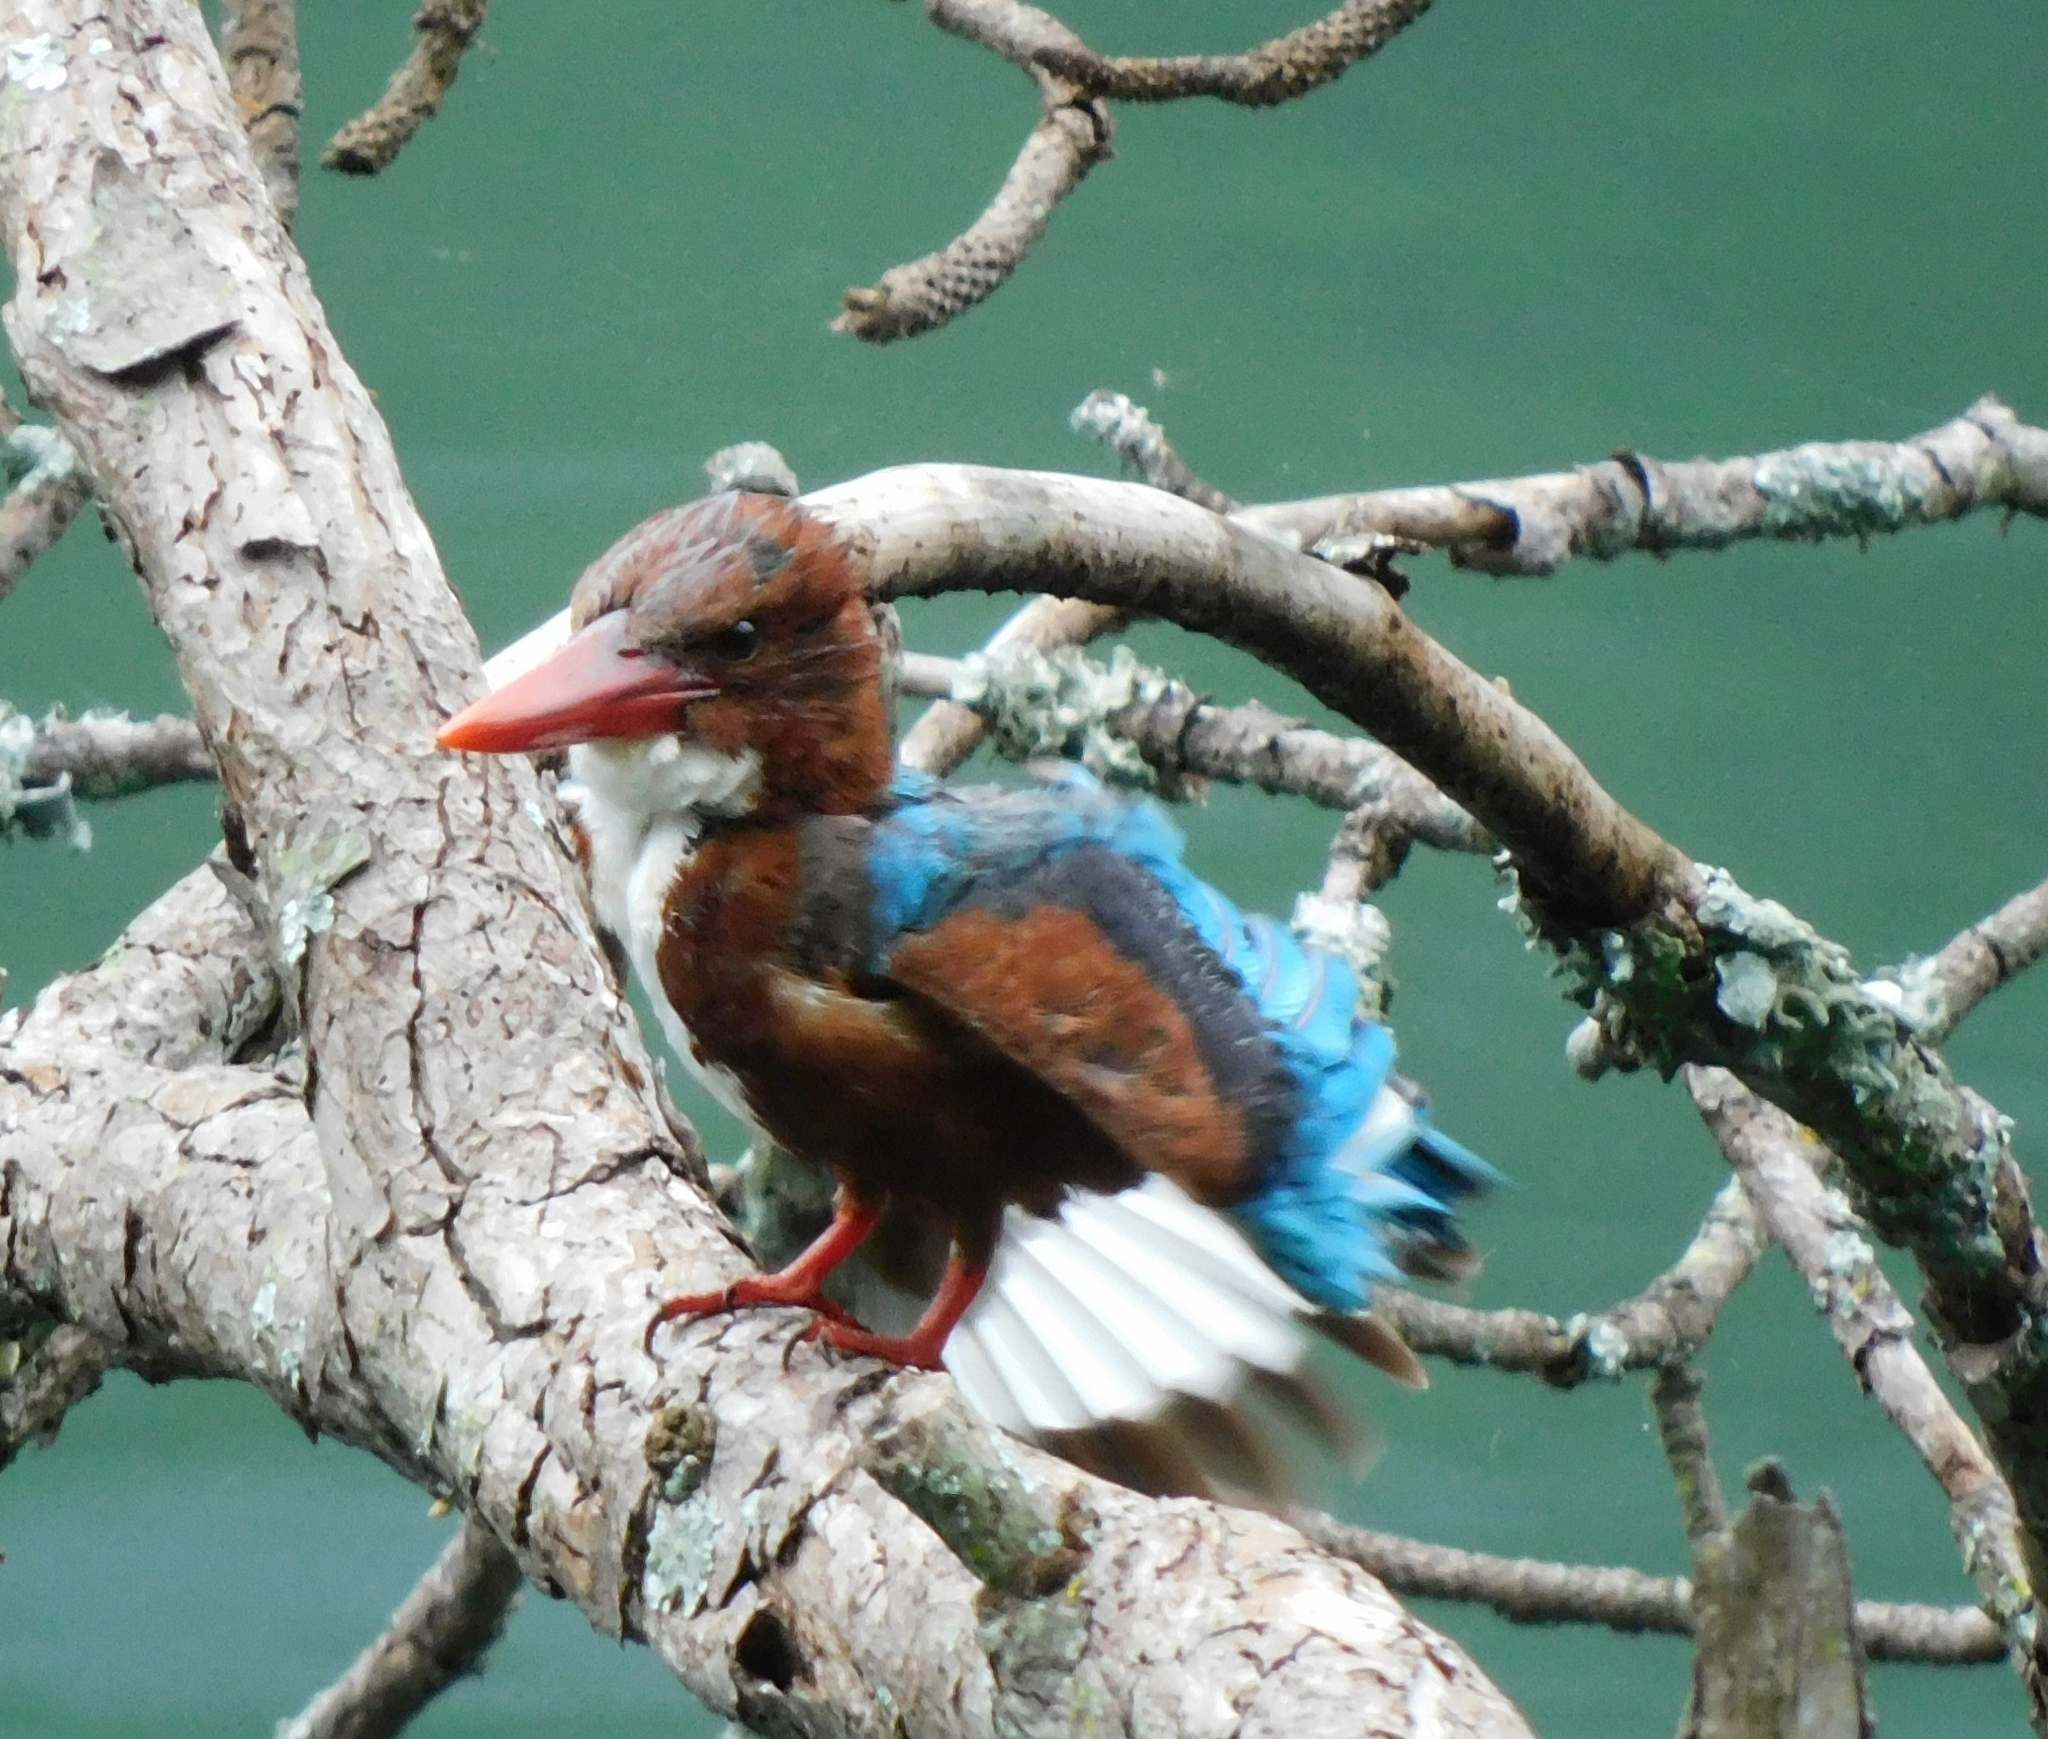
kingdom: Animalia
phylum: Chordata
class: Aves
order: Coraciiformes
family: Alcedinidae
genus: Halcyon
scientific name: Halcyon smyrnensis
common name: White-throated kingfisher
